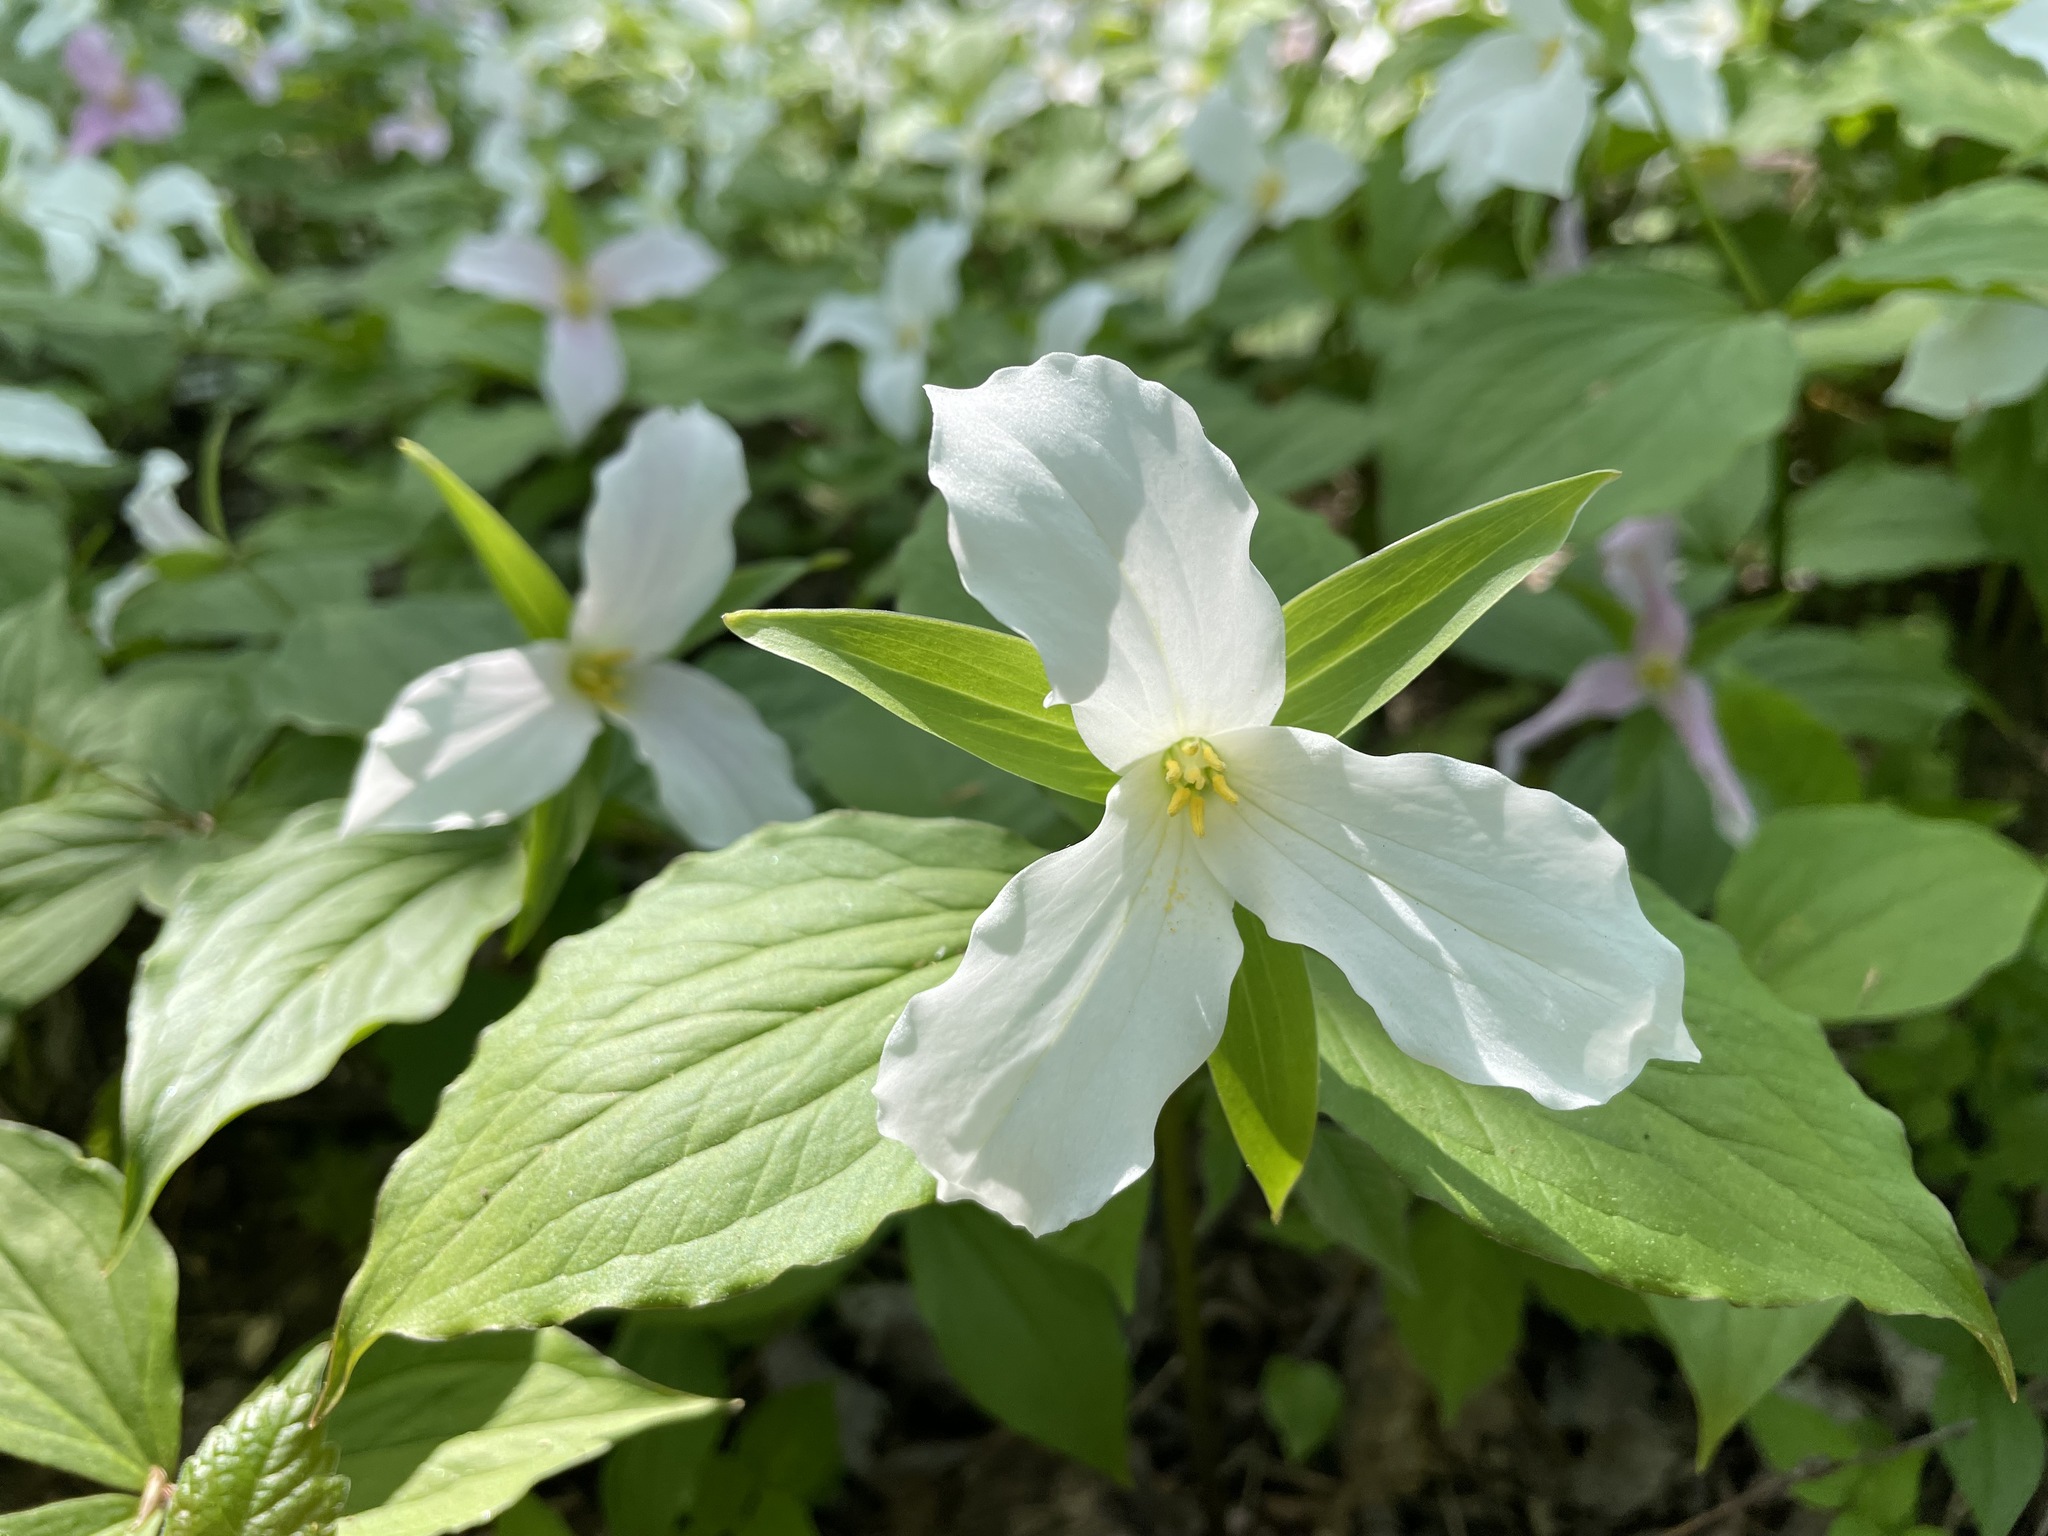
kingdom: Plantae
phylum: Tracheophyta
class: Liliopsida
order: Liliales
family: Melanthiaceae
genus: Trillium
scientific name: Trillium grandiflorum
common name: Great white trillium
